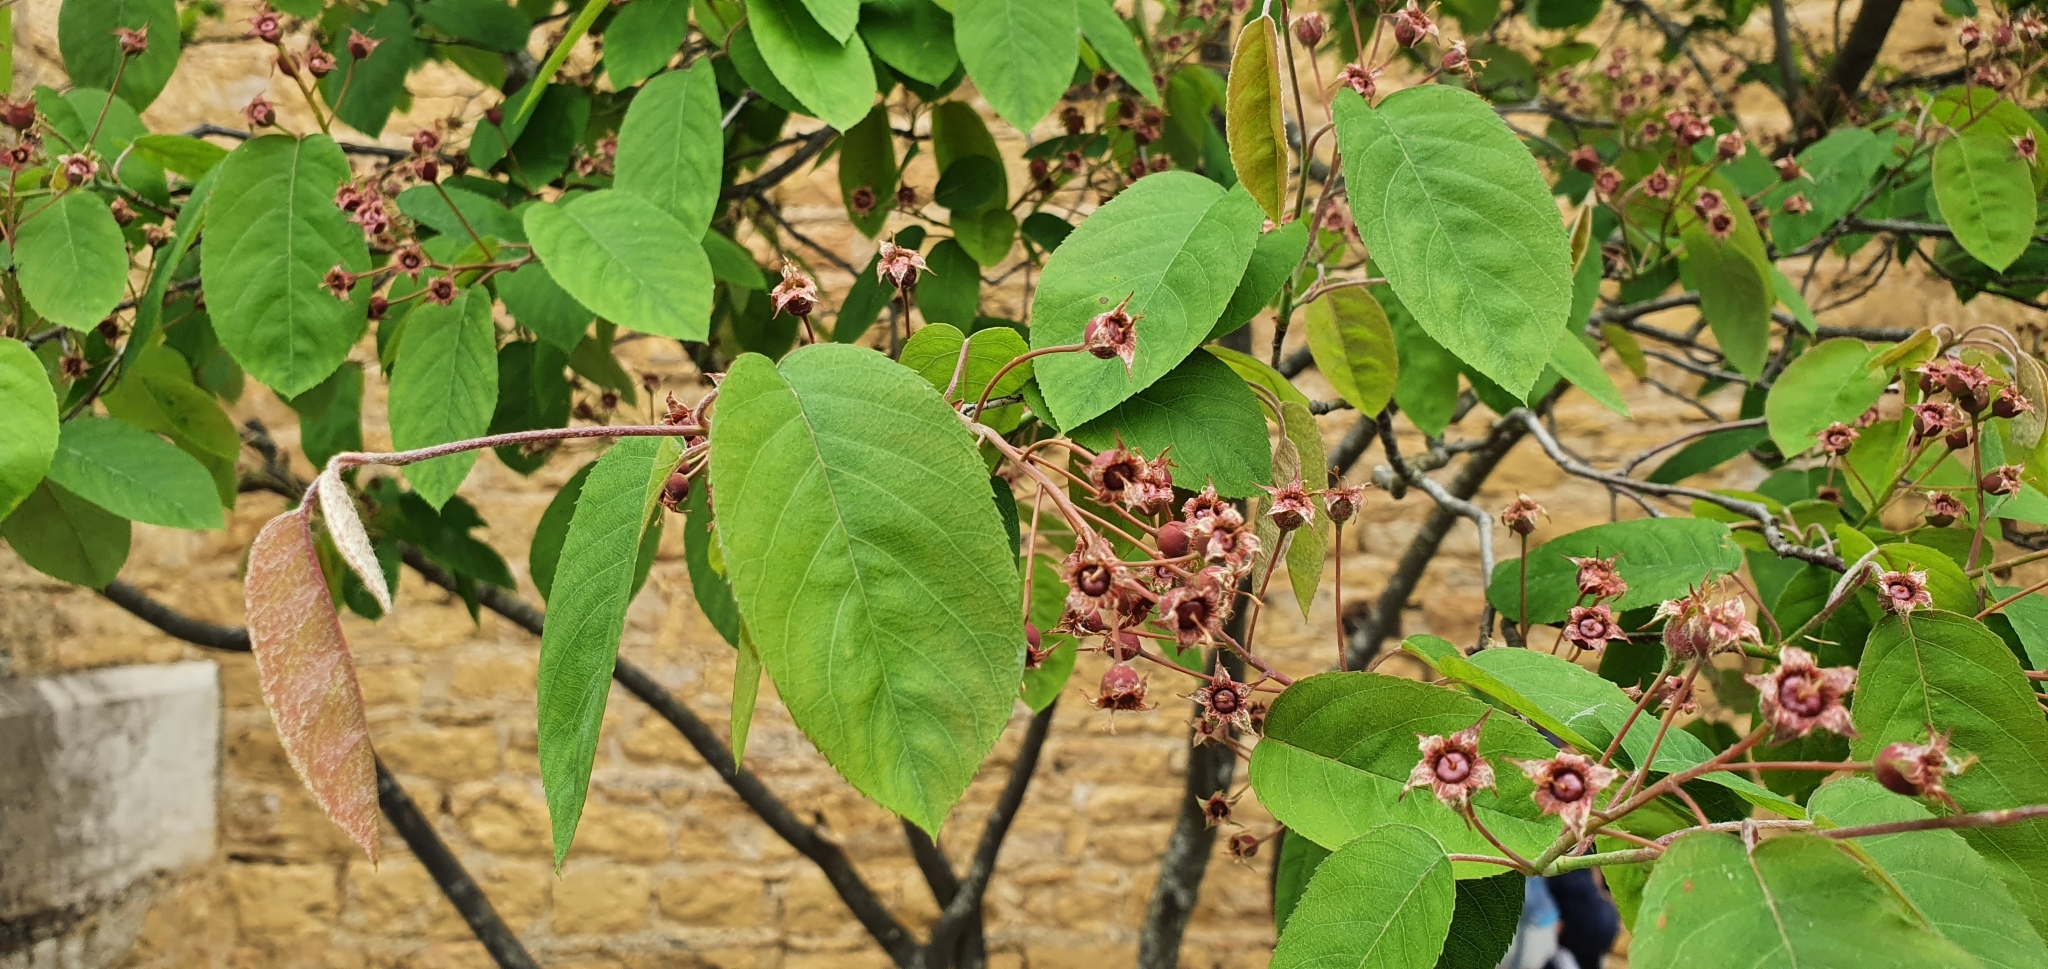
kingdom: Plantae
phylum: Tracheophyta
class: Magnoliopsida
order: Rosales
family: Rosaceae
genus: Amelanchier
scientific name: Amelanchier ovalis
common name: Serviceberry
